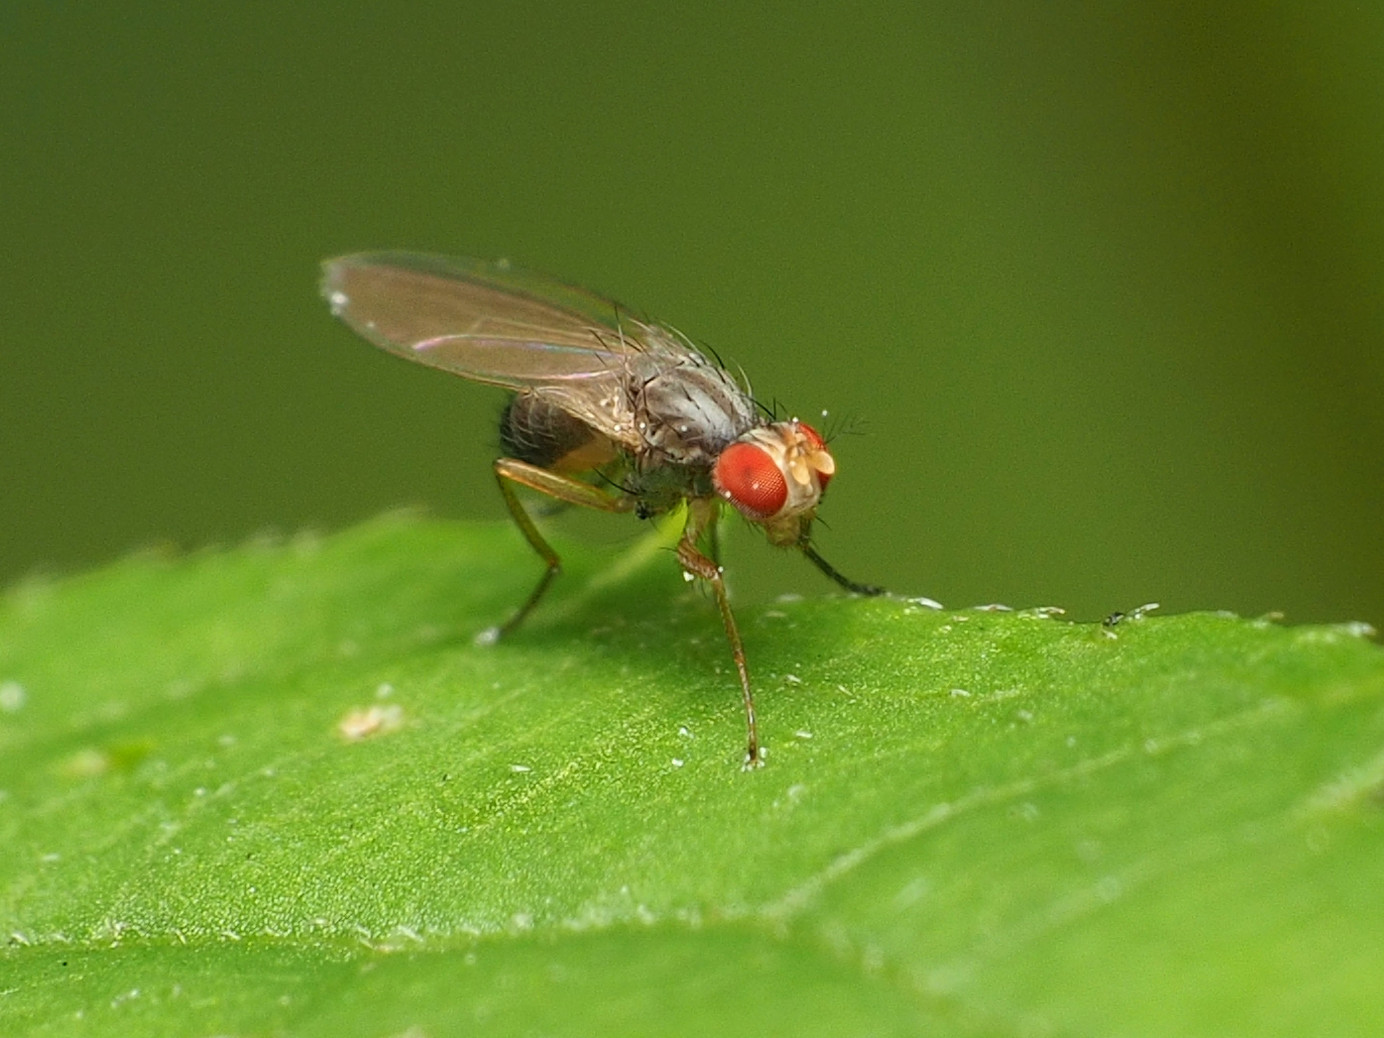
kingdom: Animalia
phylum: Arthropoda
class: Insecta
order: Diptera
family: Drosophilidae
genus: Scaptomyza
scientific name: Scaptomyza pallida
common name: Pomace fly
